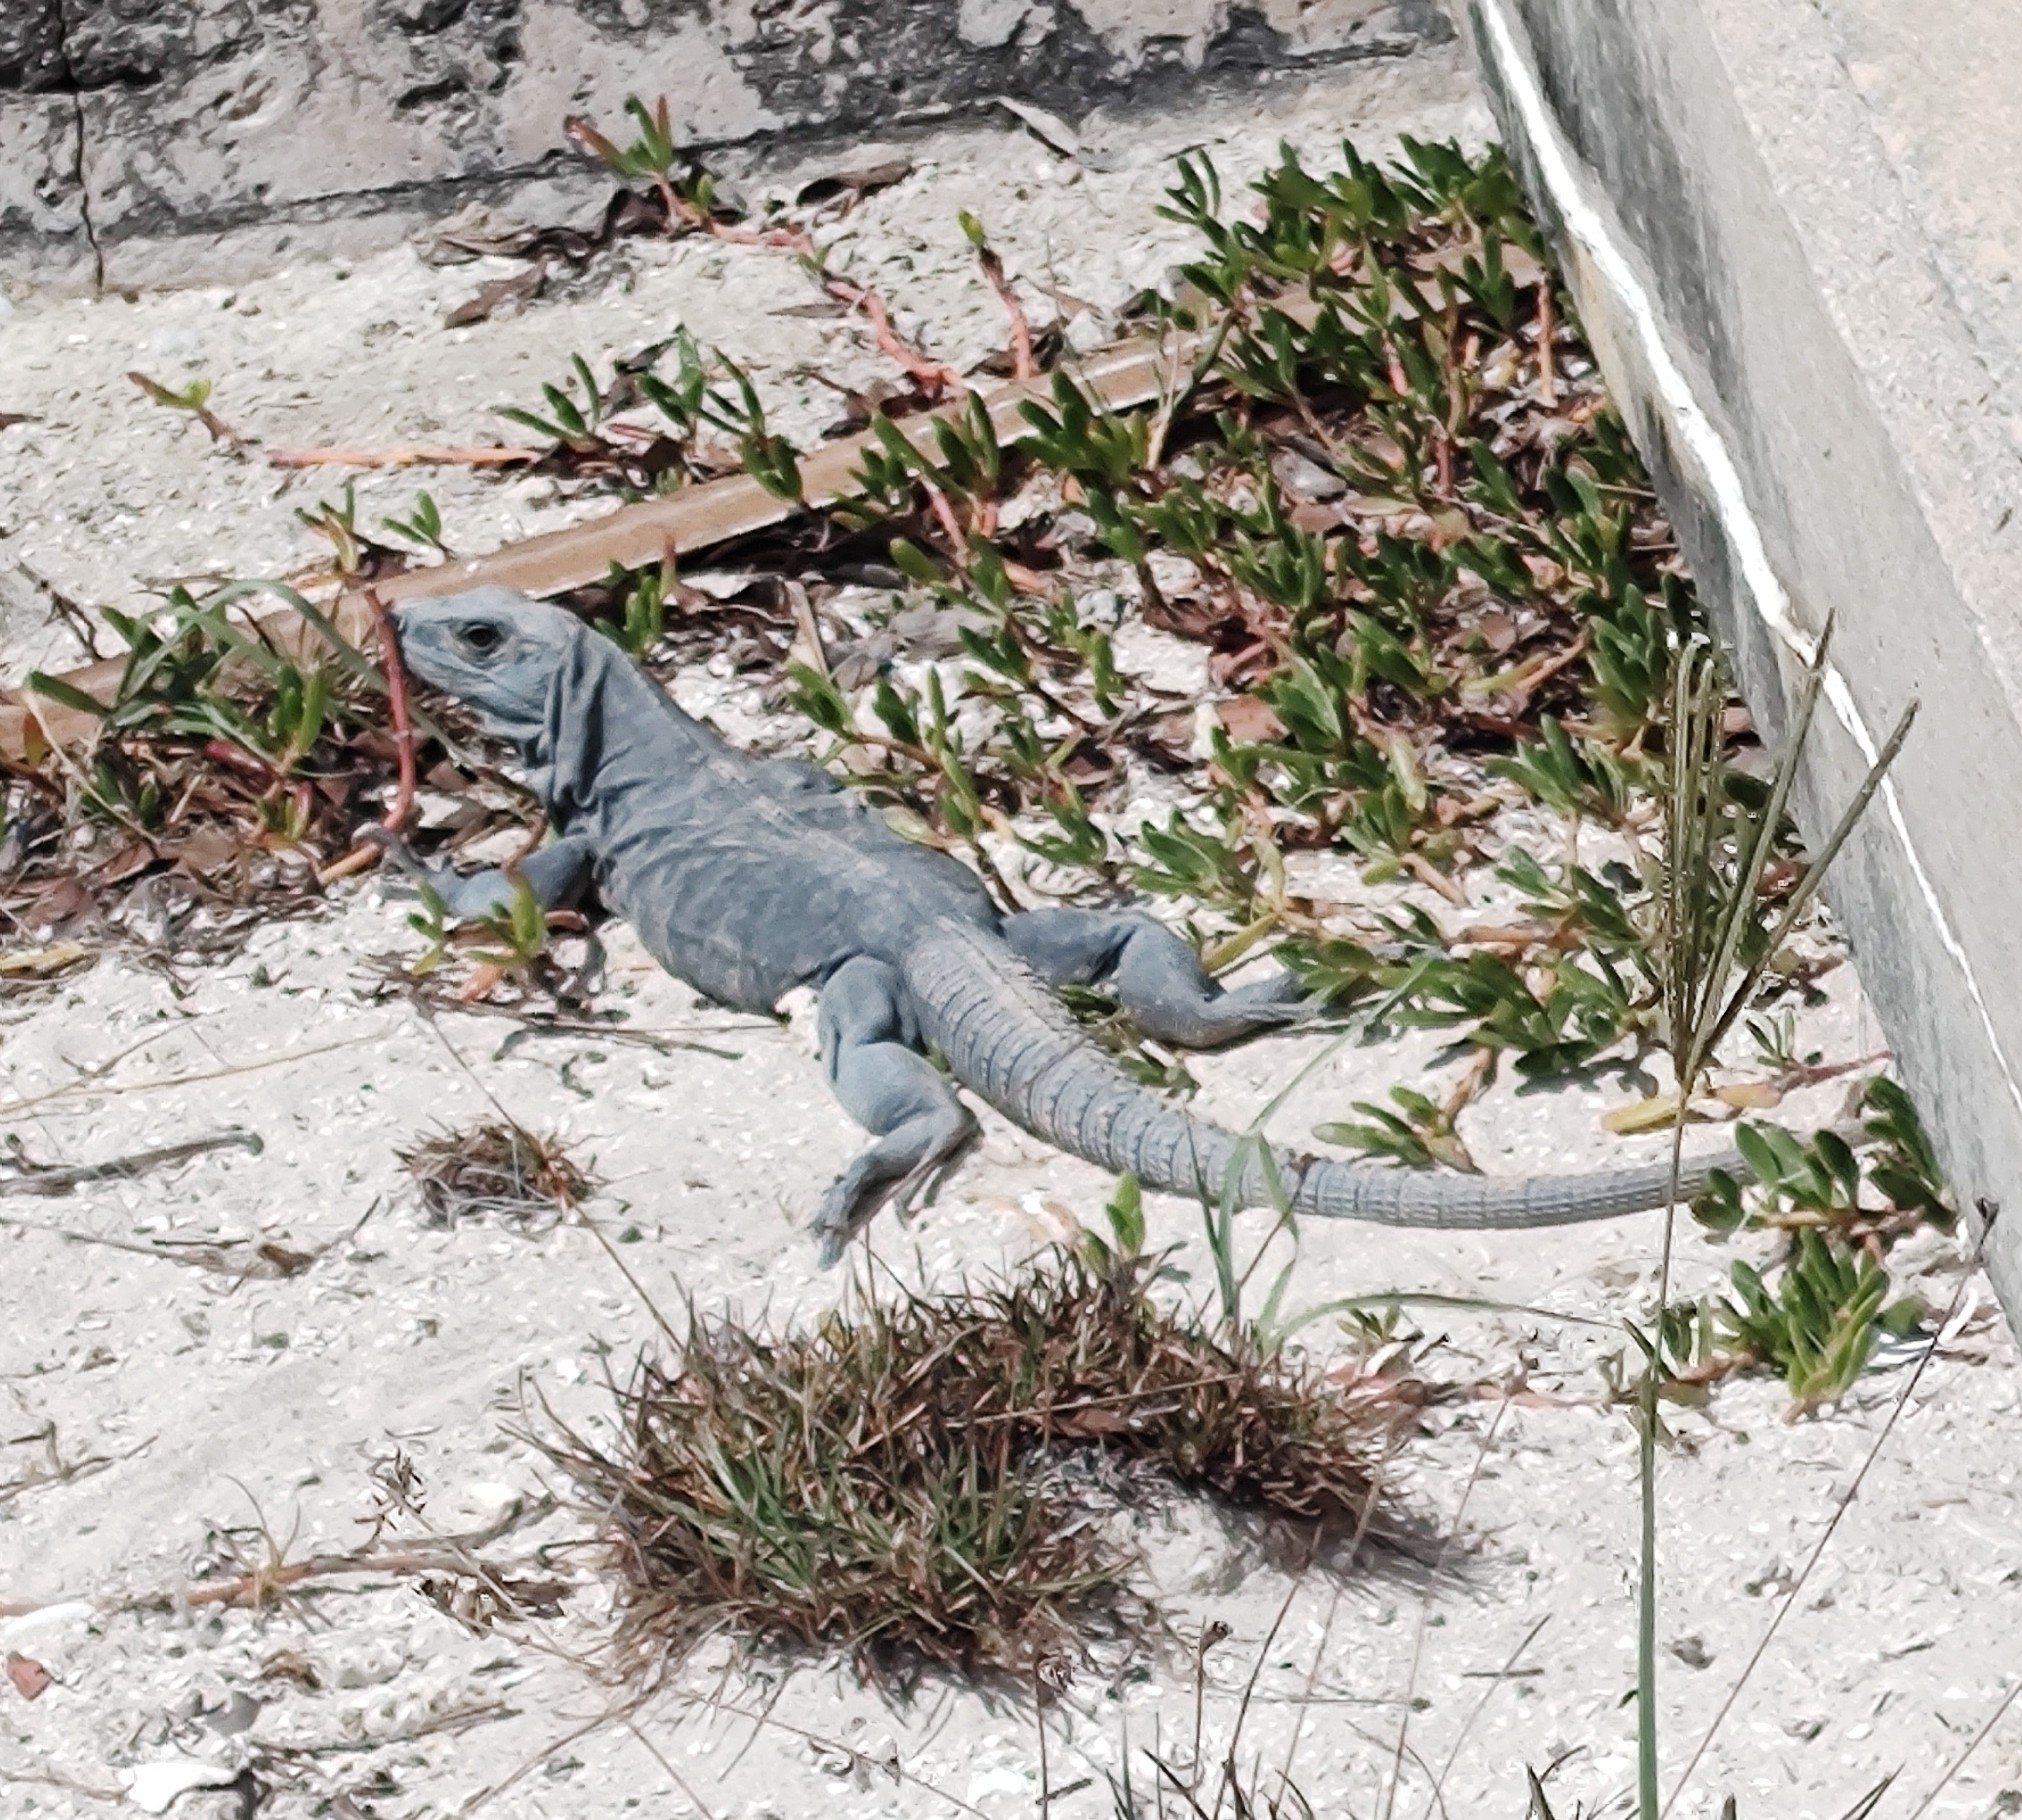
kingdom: Animalia
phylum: Chordata
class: Squamata
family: Iguanidae
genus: Ctenosaura
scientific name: Ctenosaura similis
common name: Black spiny-tailed iguana
